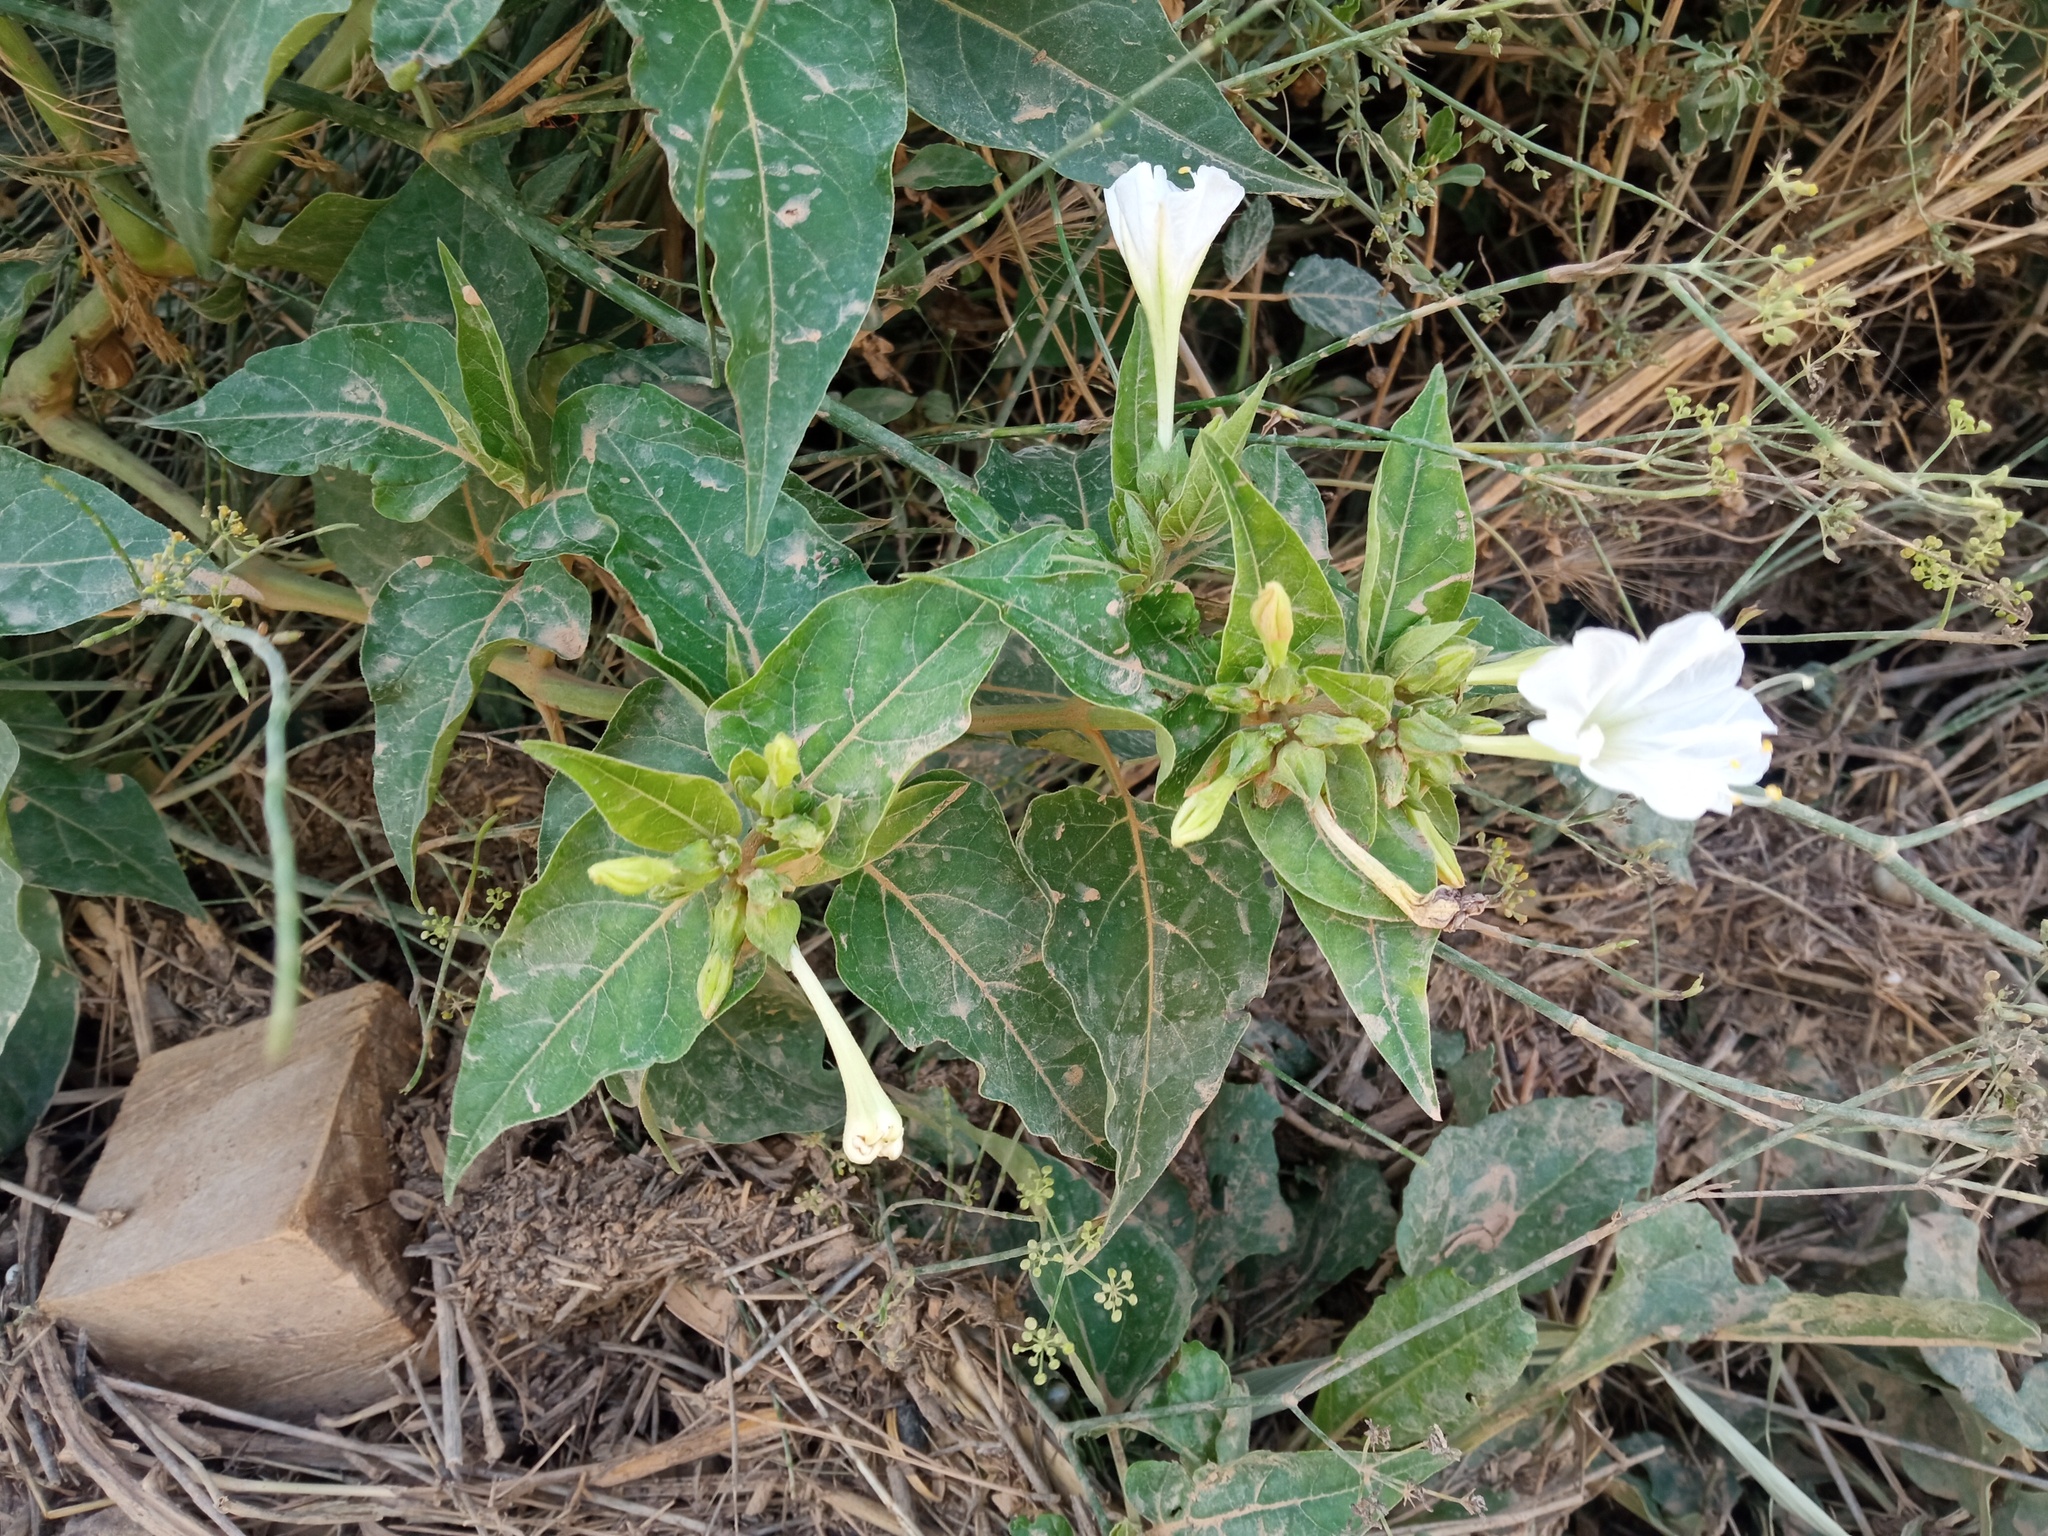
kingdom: Plantae
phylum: Tracheophyta
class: Magnoliopsida
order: Caryophyllales
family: Nyctaginaceae
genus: Mirabilis
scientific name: Mirabilis jalapa
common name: Marvel-of-peru
